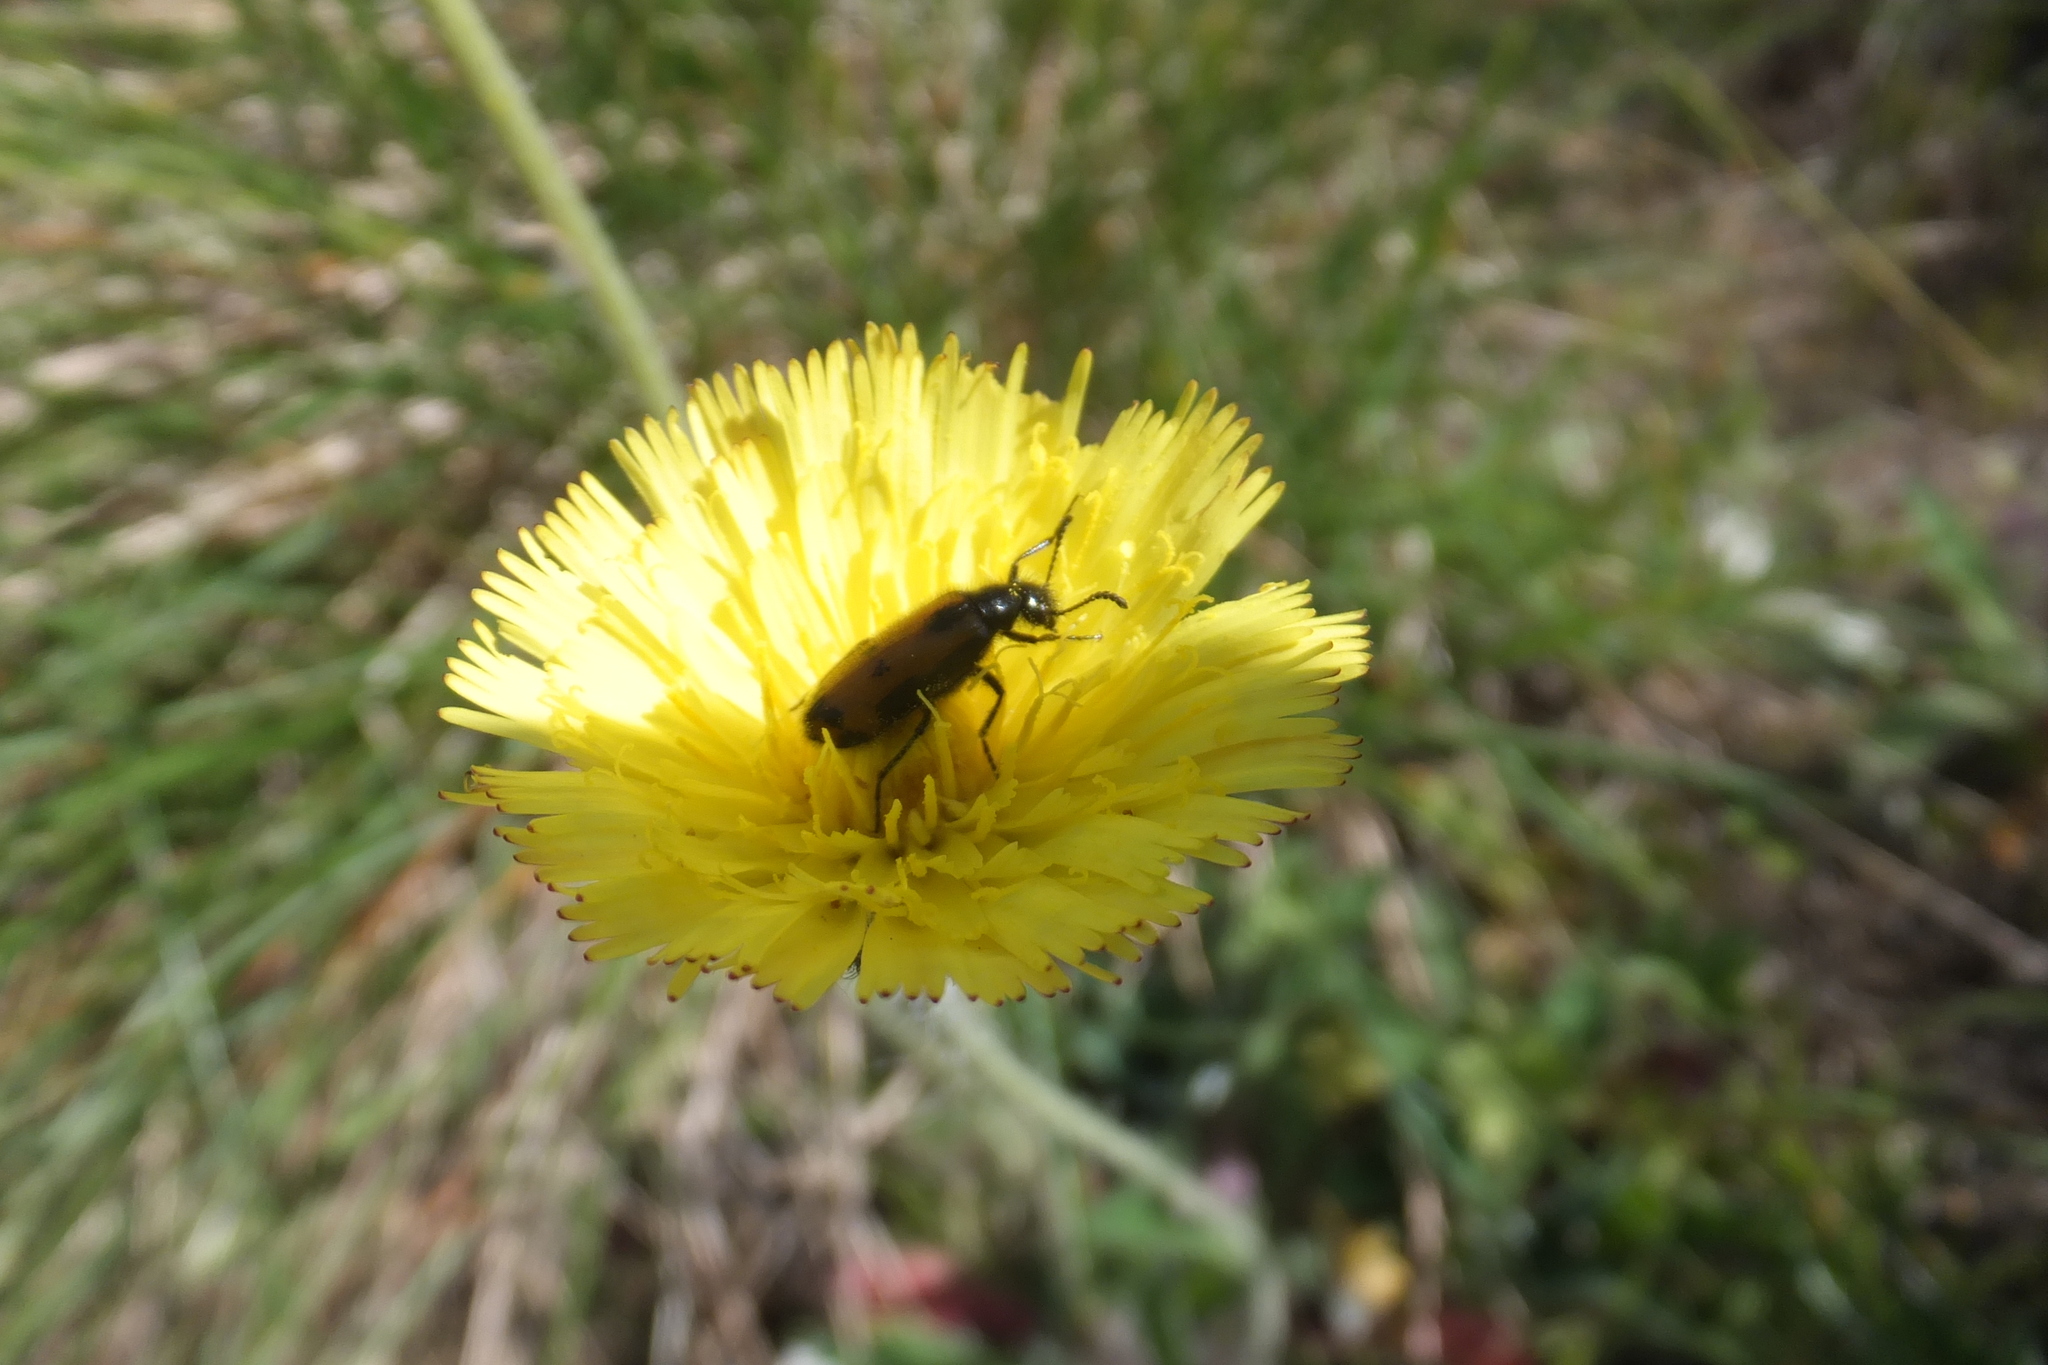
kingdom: Animalia
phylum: Arthropoda
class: Insecta
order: Coleoptera
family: Meloidae
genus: Mylabris
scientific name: Mylabris flexuosa
